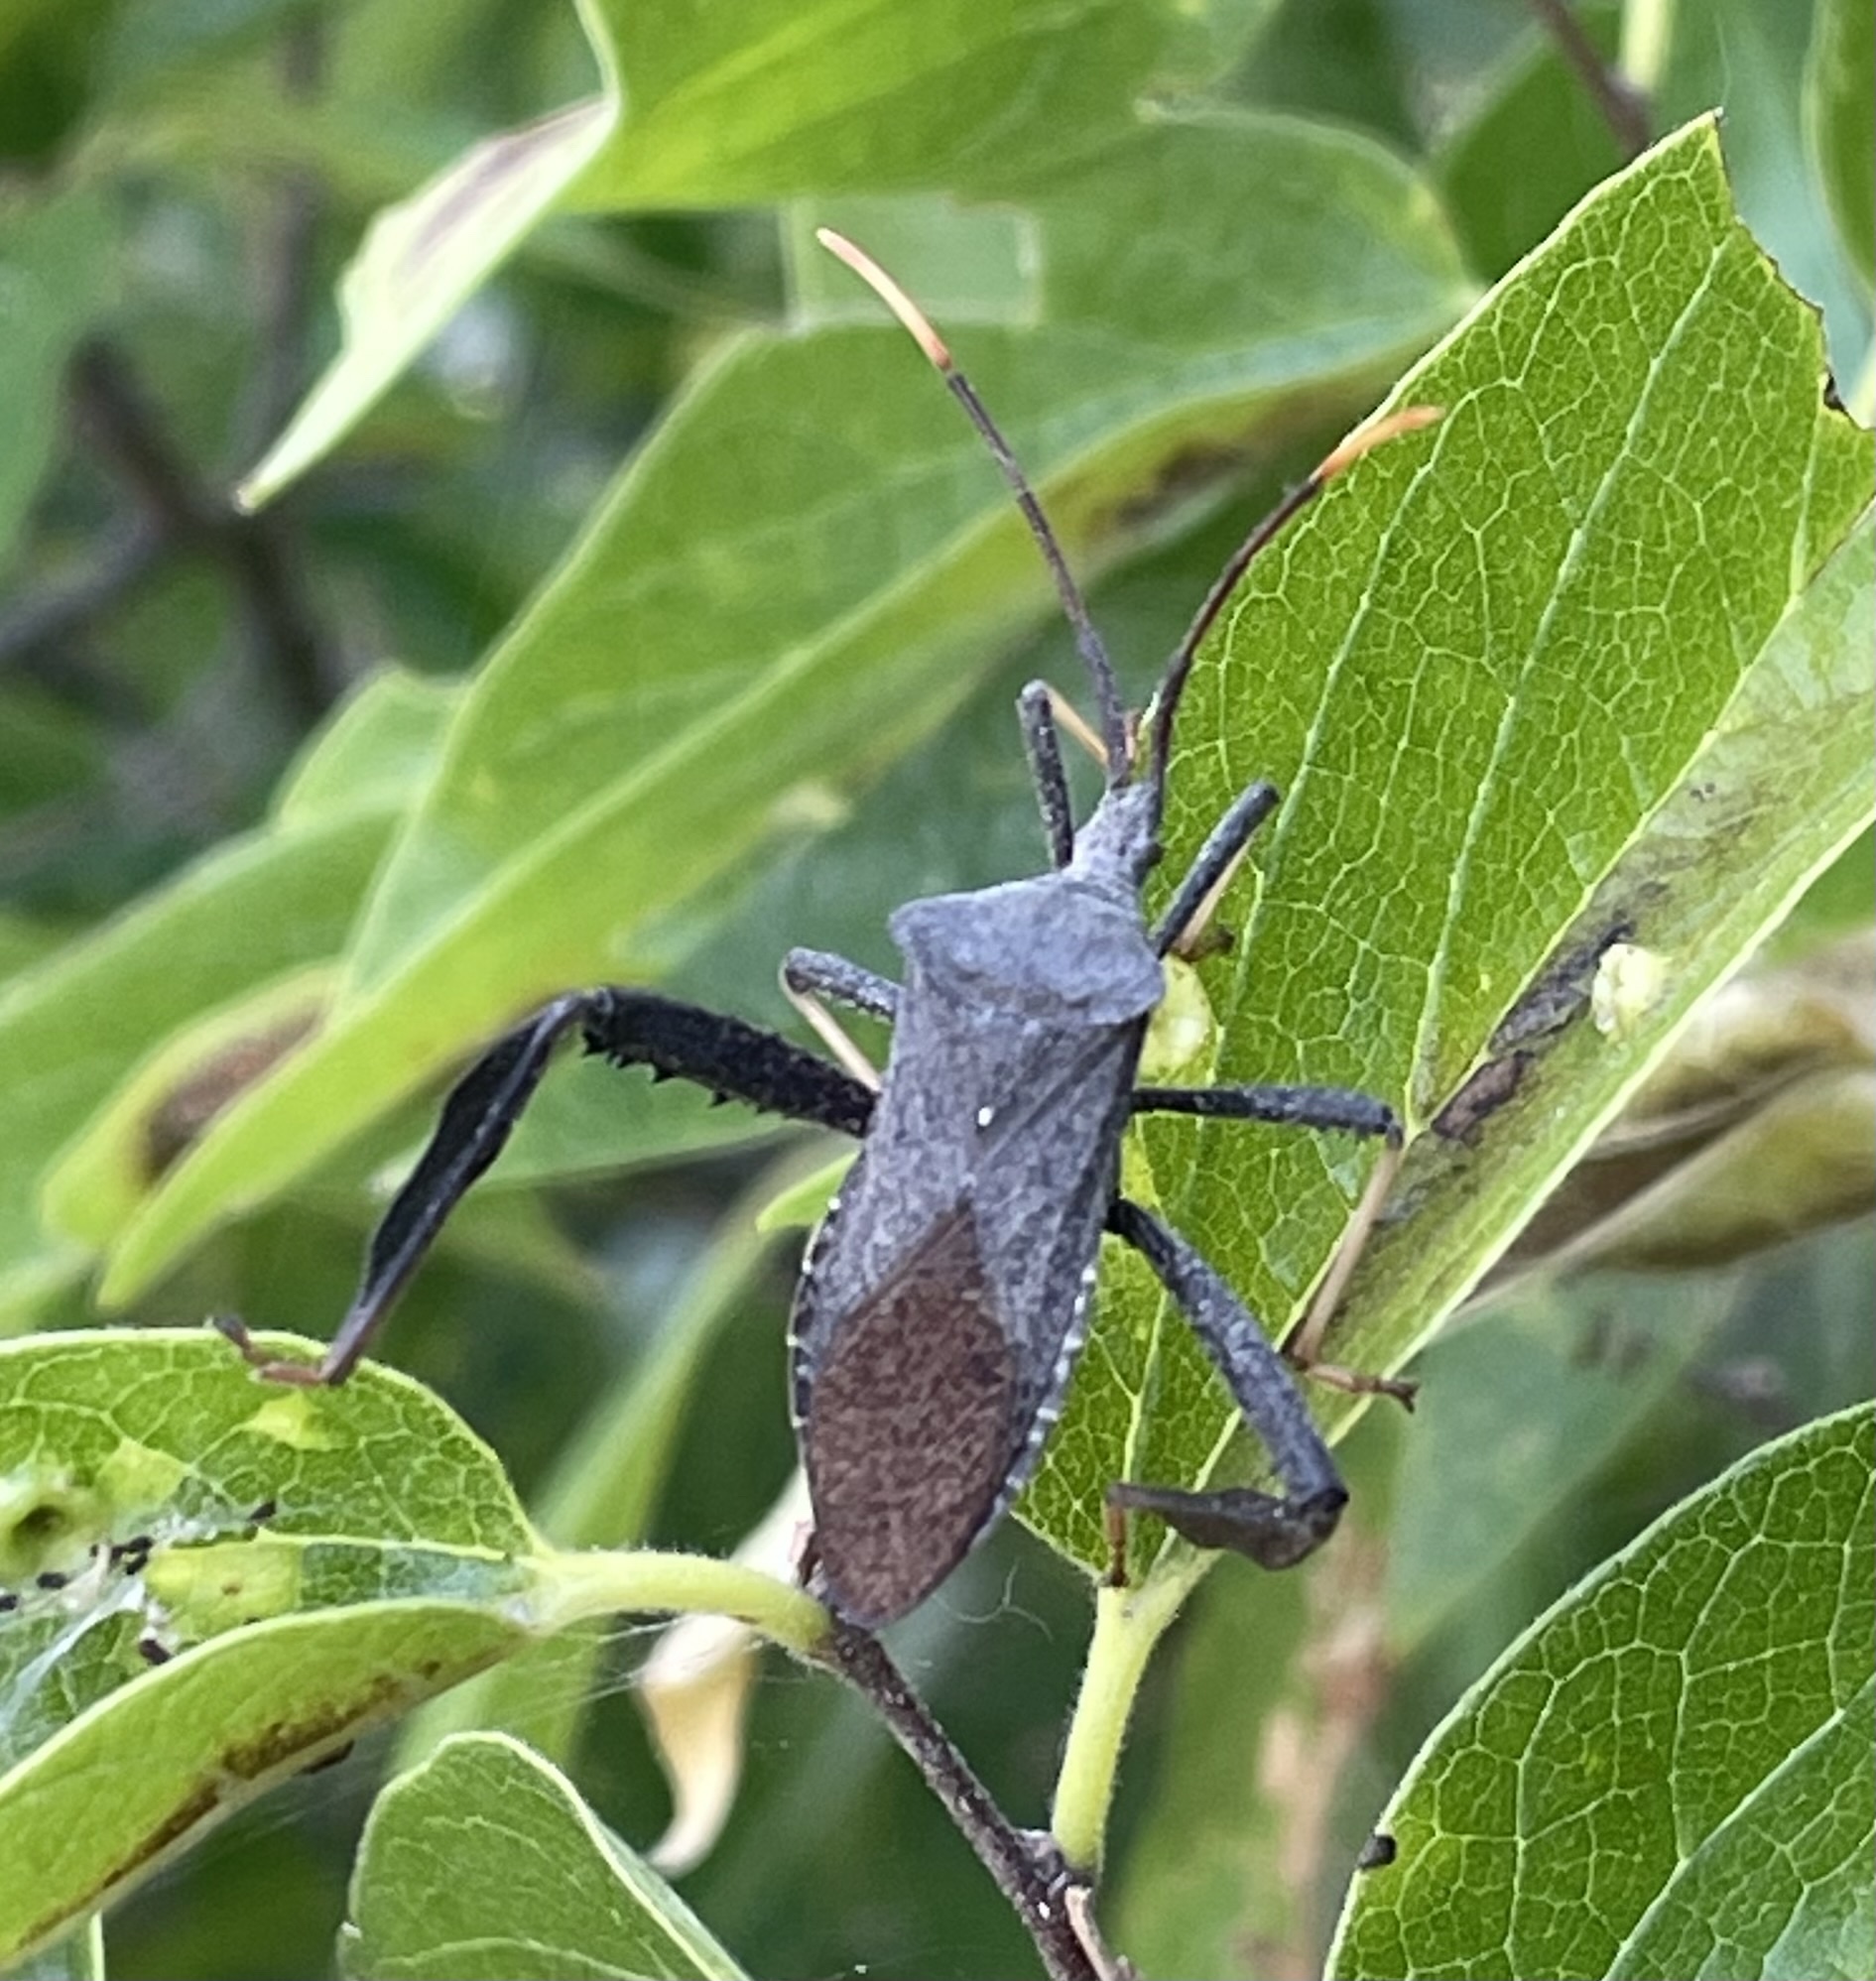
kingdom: Animalia
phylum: Arthropoda
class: Insecta
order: Hemiptera
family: Coreidae
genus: Acanthocephala
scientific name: Acanthocephala terminalis
